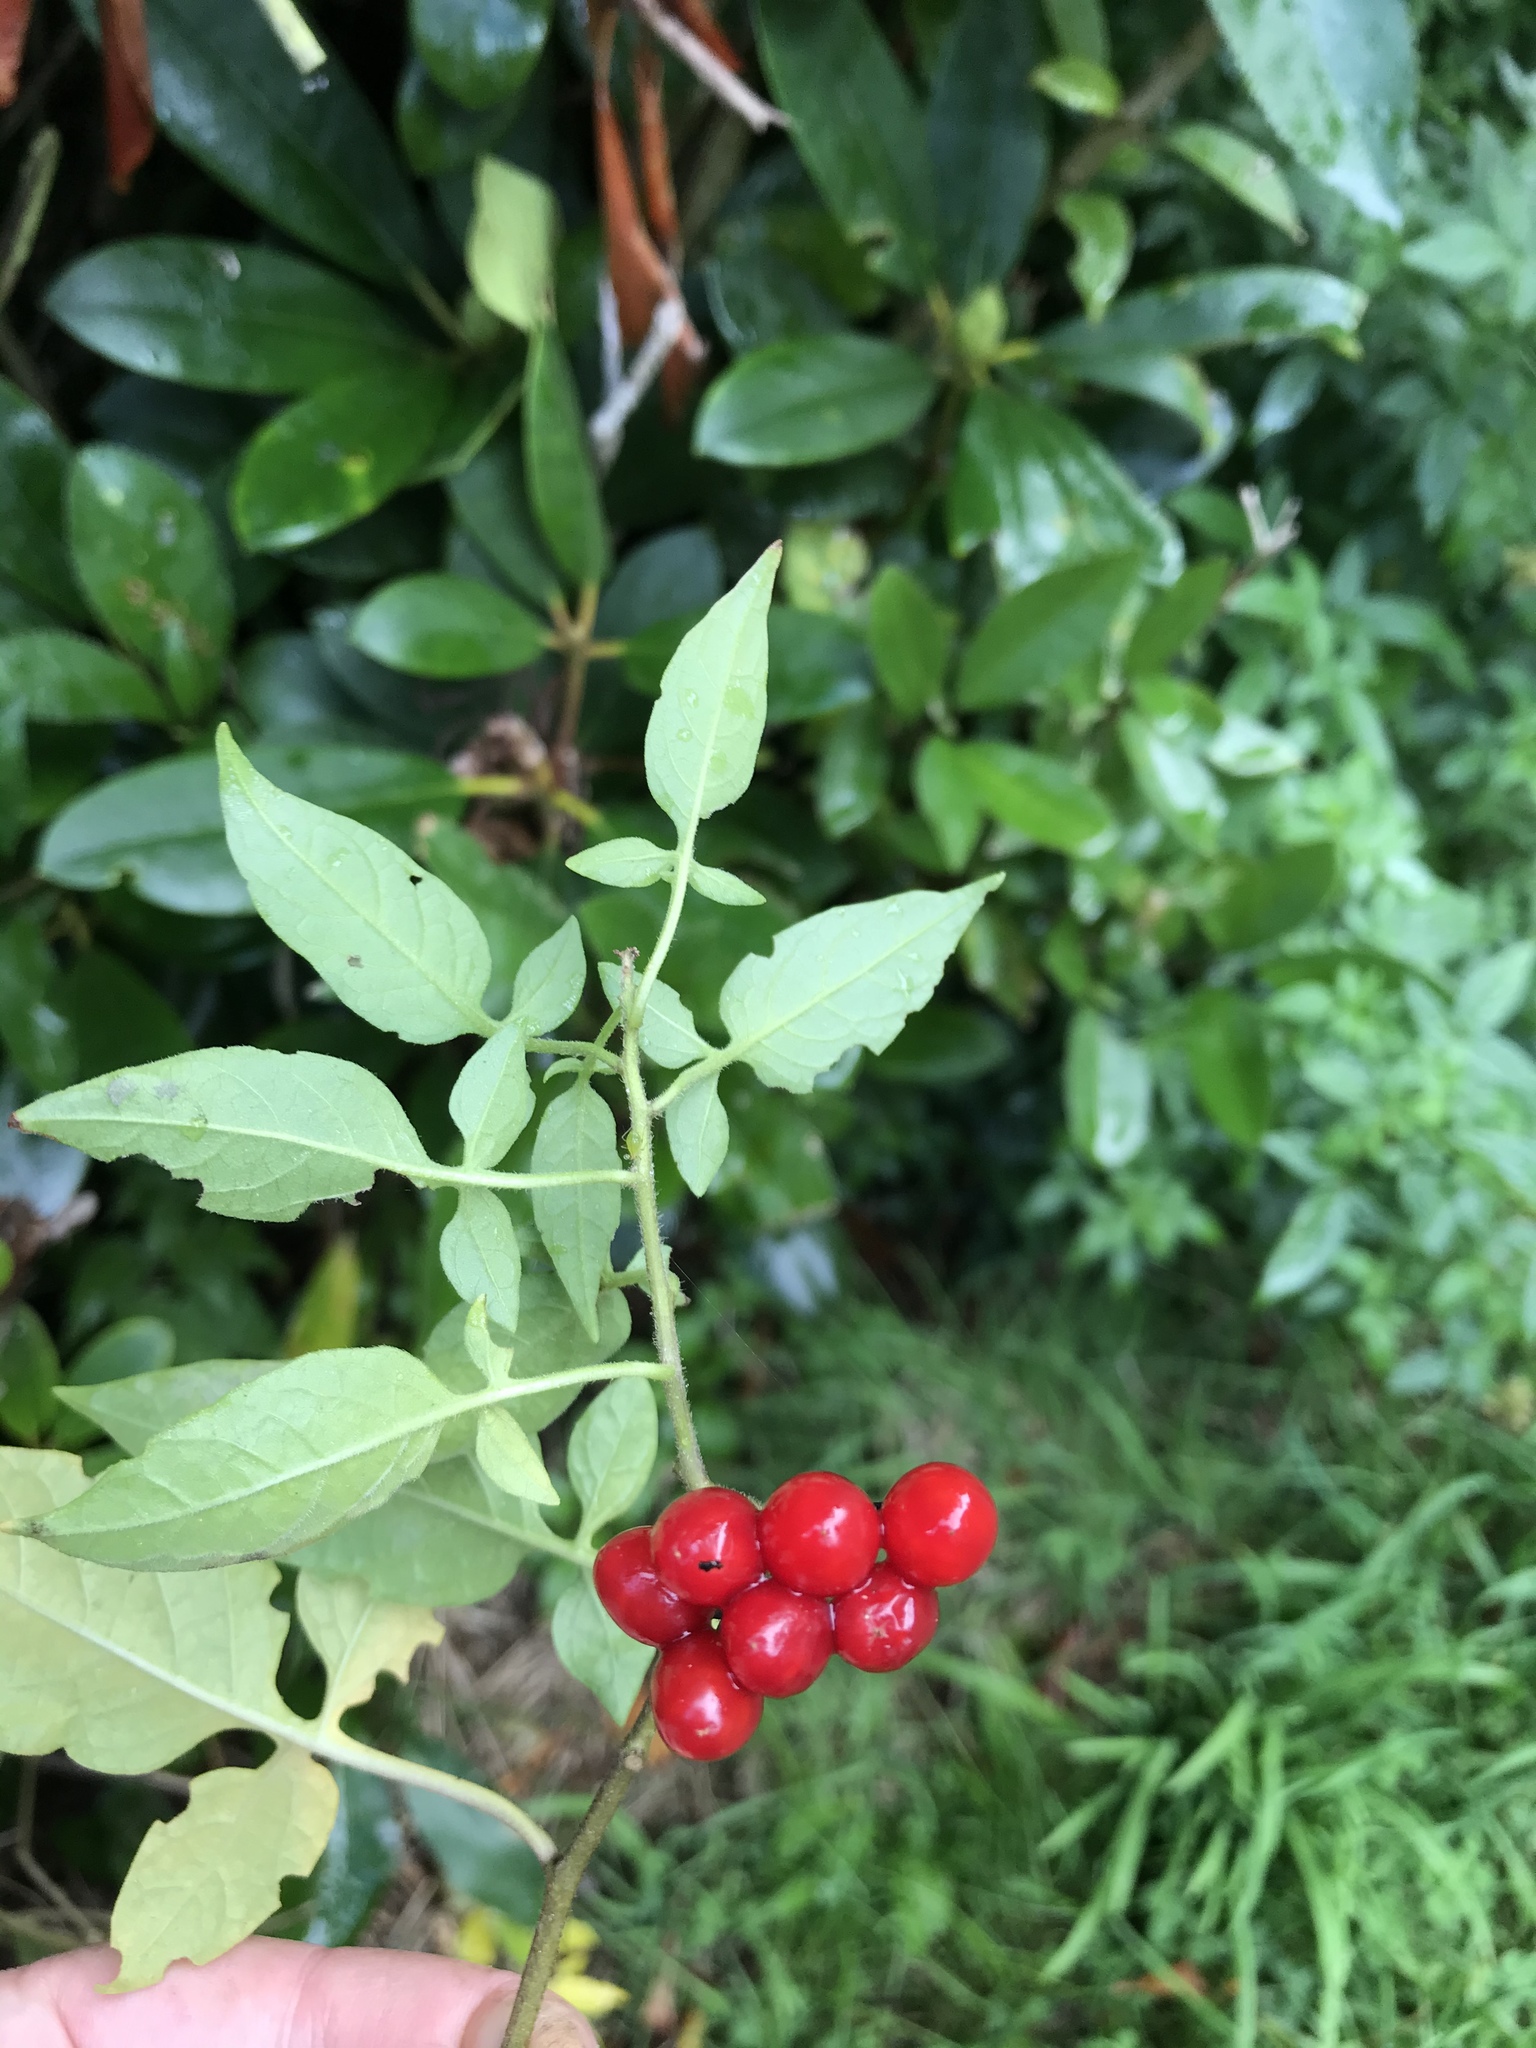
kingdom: Plantae
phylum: Tracheophyta
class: Magnoliopsida
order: Solanales
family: Solanaceae
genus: Solanum
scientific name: Solanum dulcamara
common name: Climbing nightshade
